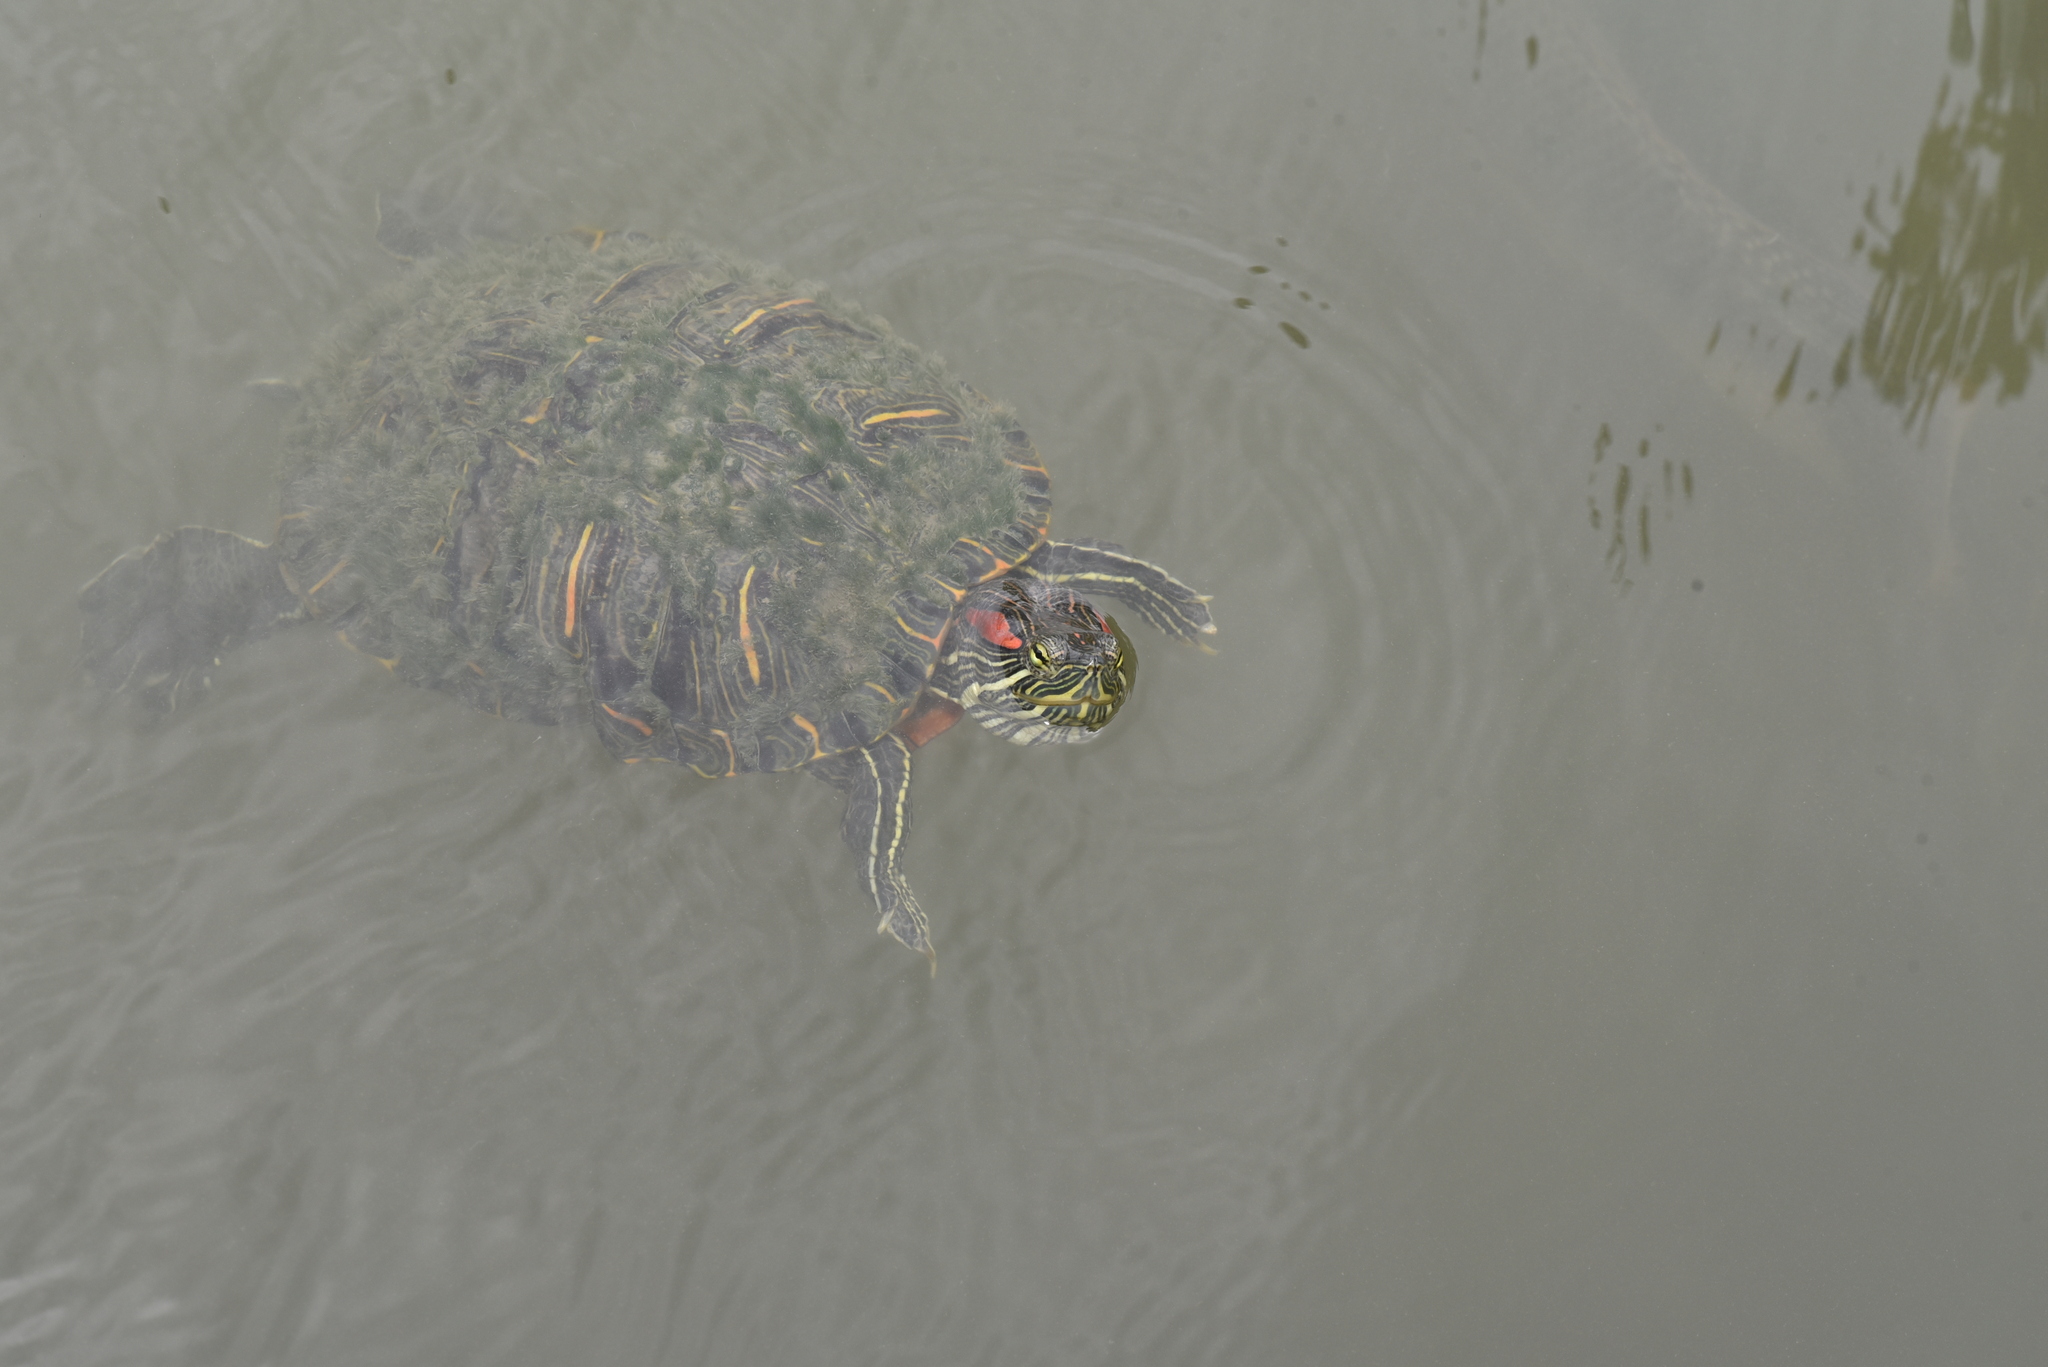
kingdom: Animalia
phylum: Chordata
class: Testudines
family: Emydidae
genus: Trachemys
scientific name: Trachemys scripta
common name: Slider
